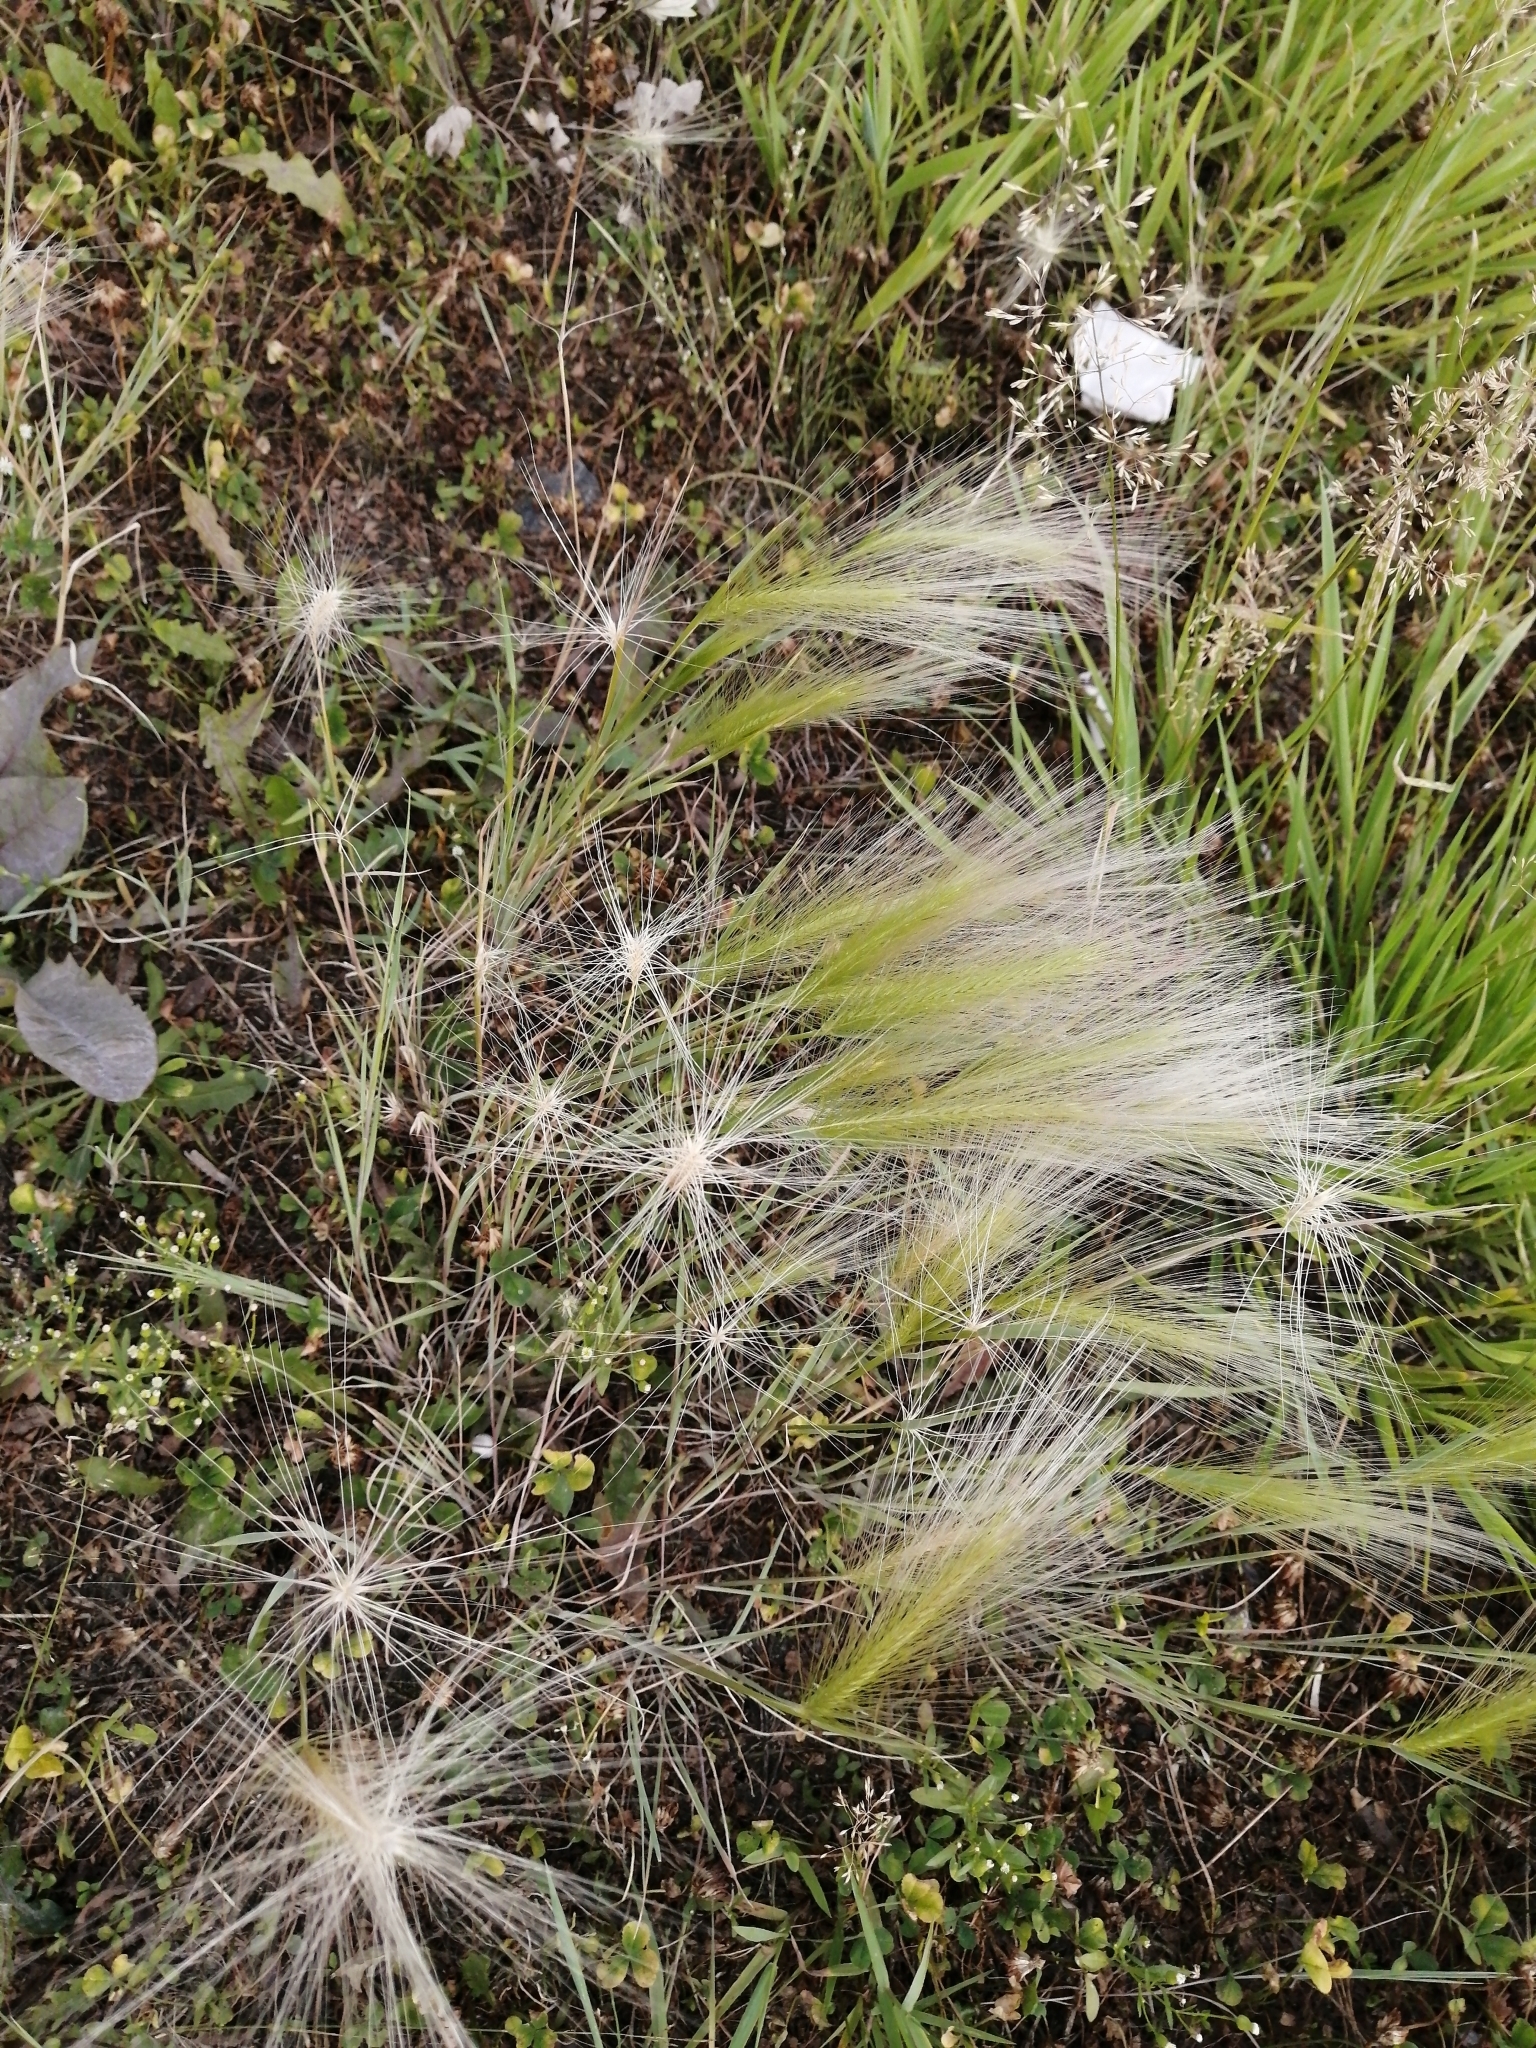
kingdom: Plantae
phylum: Tracheophyta
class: Liliopsida
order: Poales
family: Poaceae
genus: Hordeum
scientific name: Hordeum jubatum
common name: Foxtail barley
